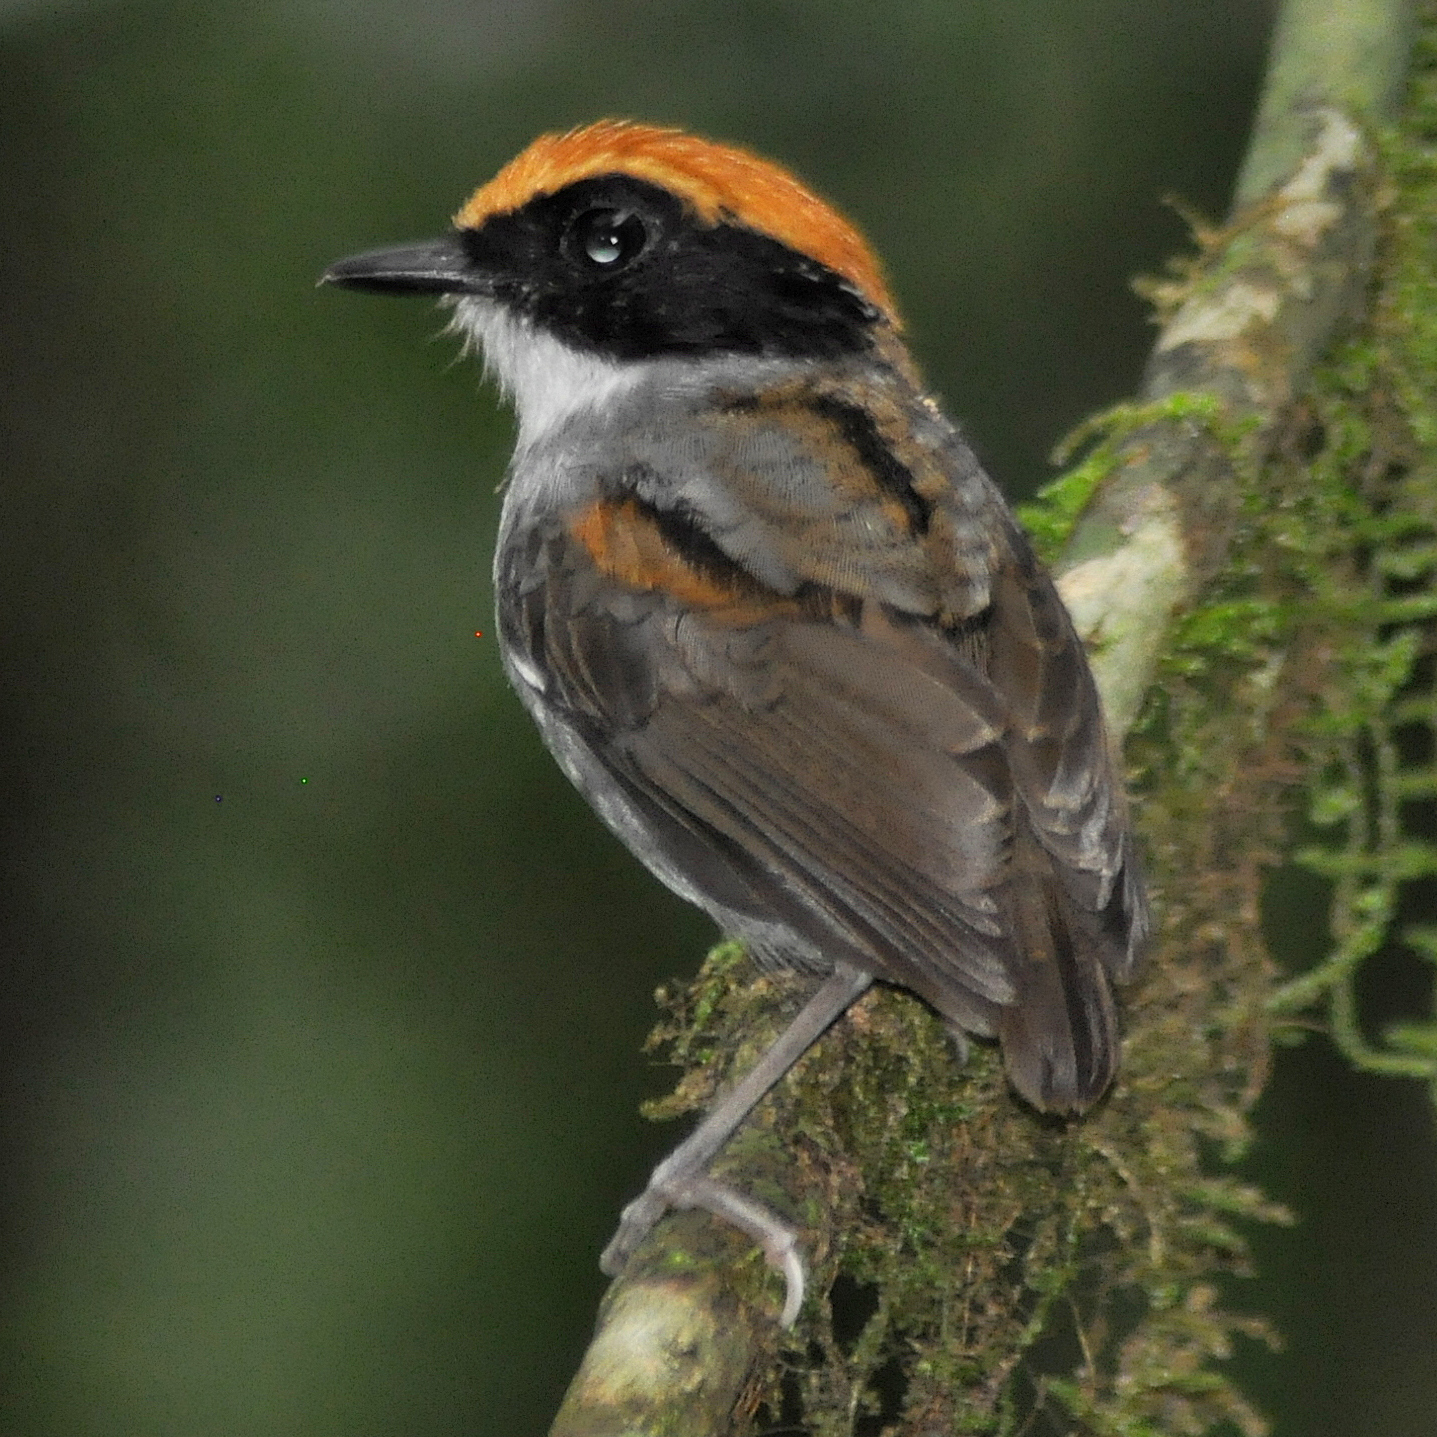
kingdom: Animalia
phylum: Chordata
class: Aves
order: Passeriformes
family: Conopophagidae
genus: Conopophaga
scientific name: Conopophaga melanops
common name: Black-cheeked gnateater
